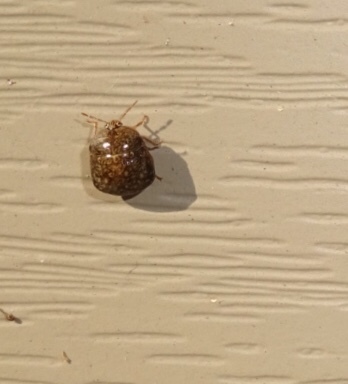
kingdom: Animalia
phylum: Arthropoda
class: Insecta
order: Hemiptera
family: Plataspidae
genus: Megacopta
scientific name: Megacopta cribraria
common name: Bean plataspid
